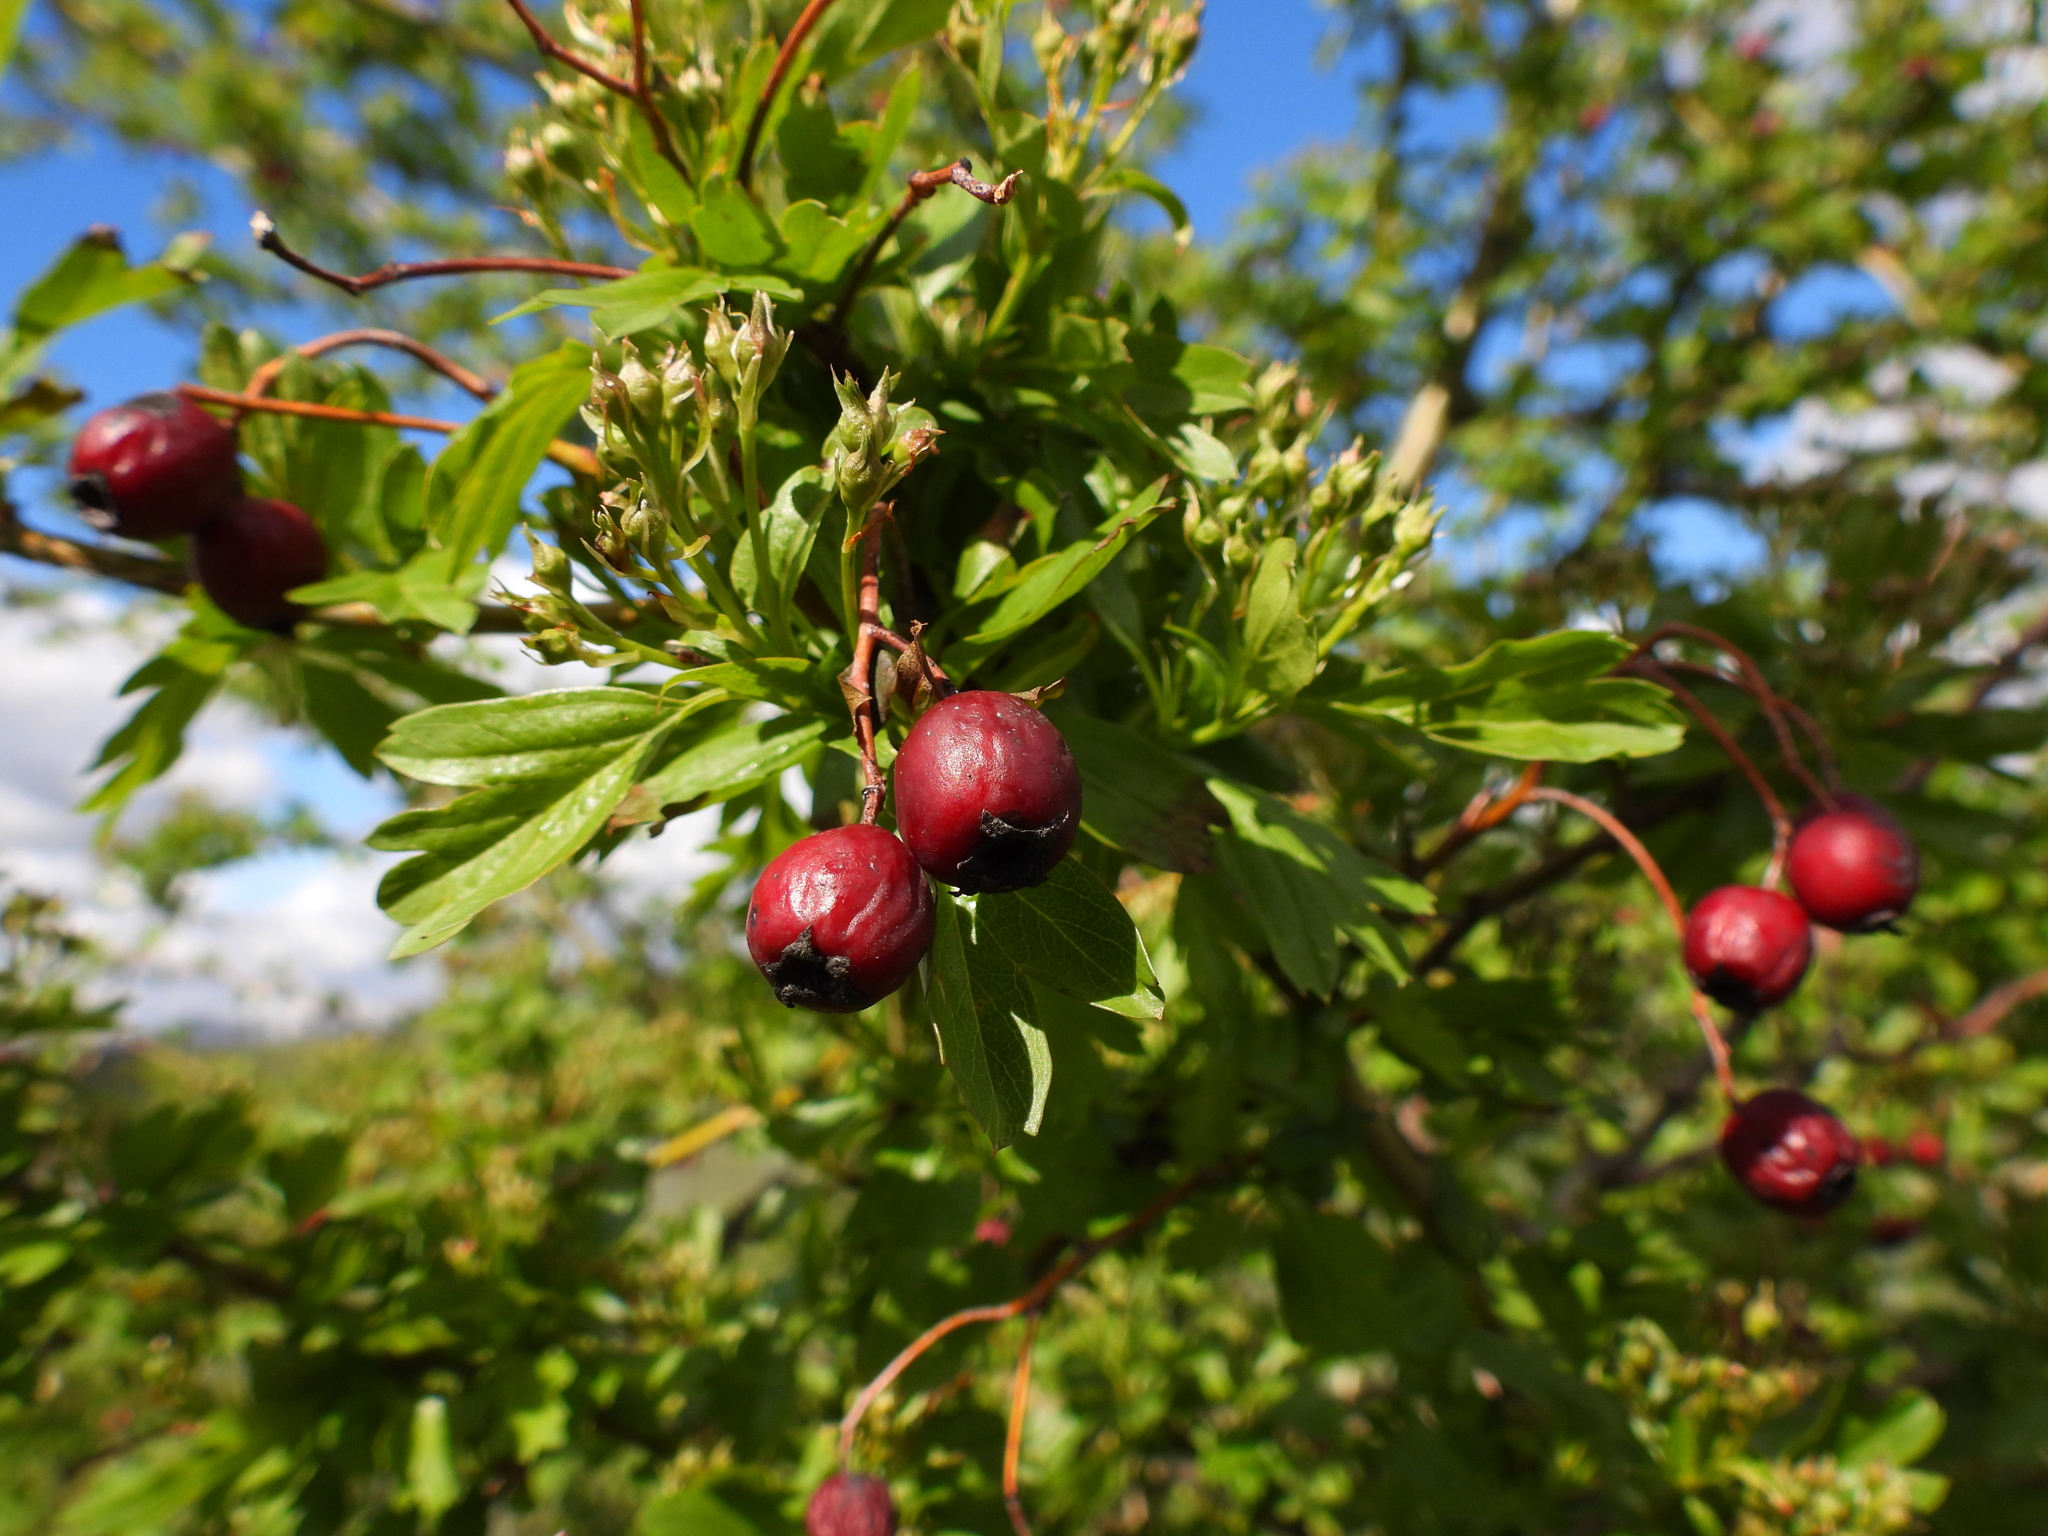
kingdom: Plantae
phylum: Tracheophyta
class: Magnoliopsida
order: Rosales
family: Rosaceae
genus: Crataegus
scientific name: Crataegus monogyna
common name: Hawthorn
